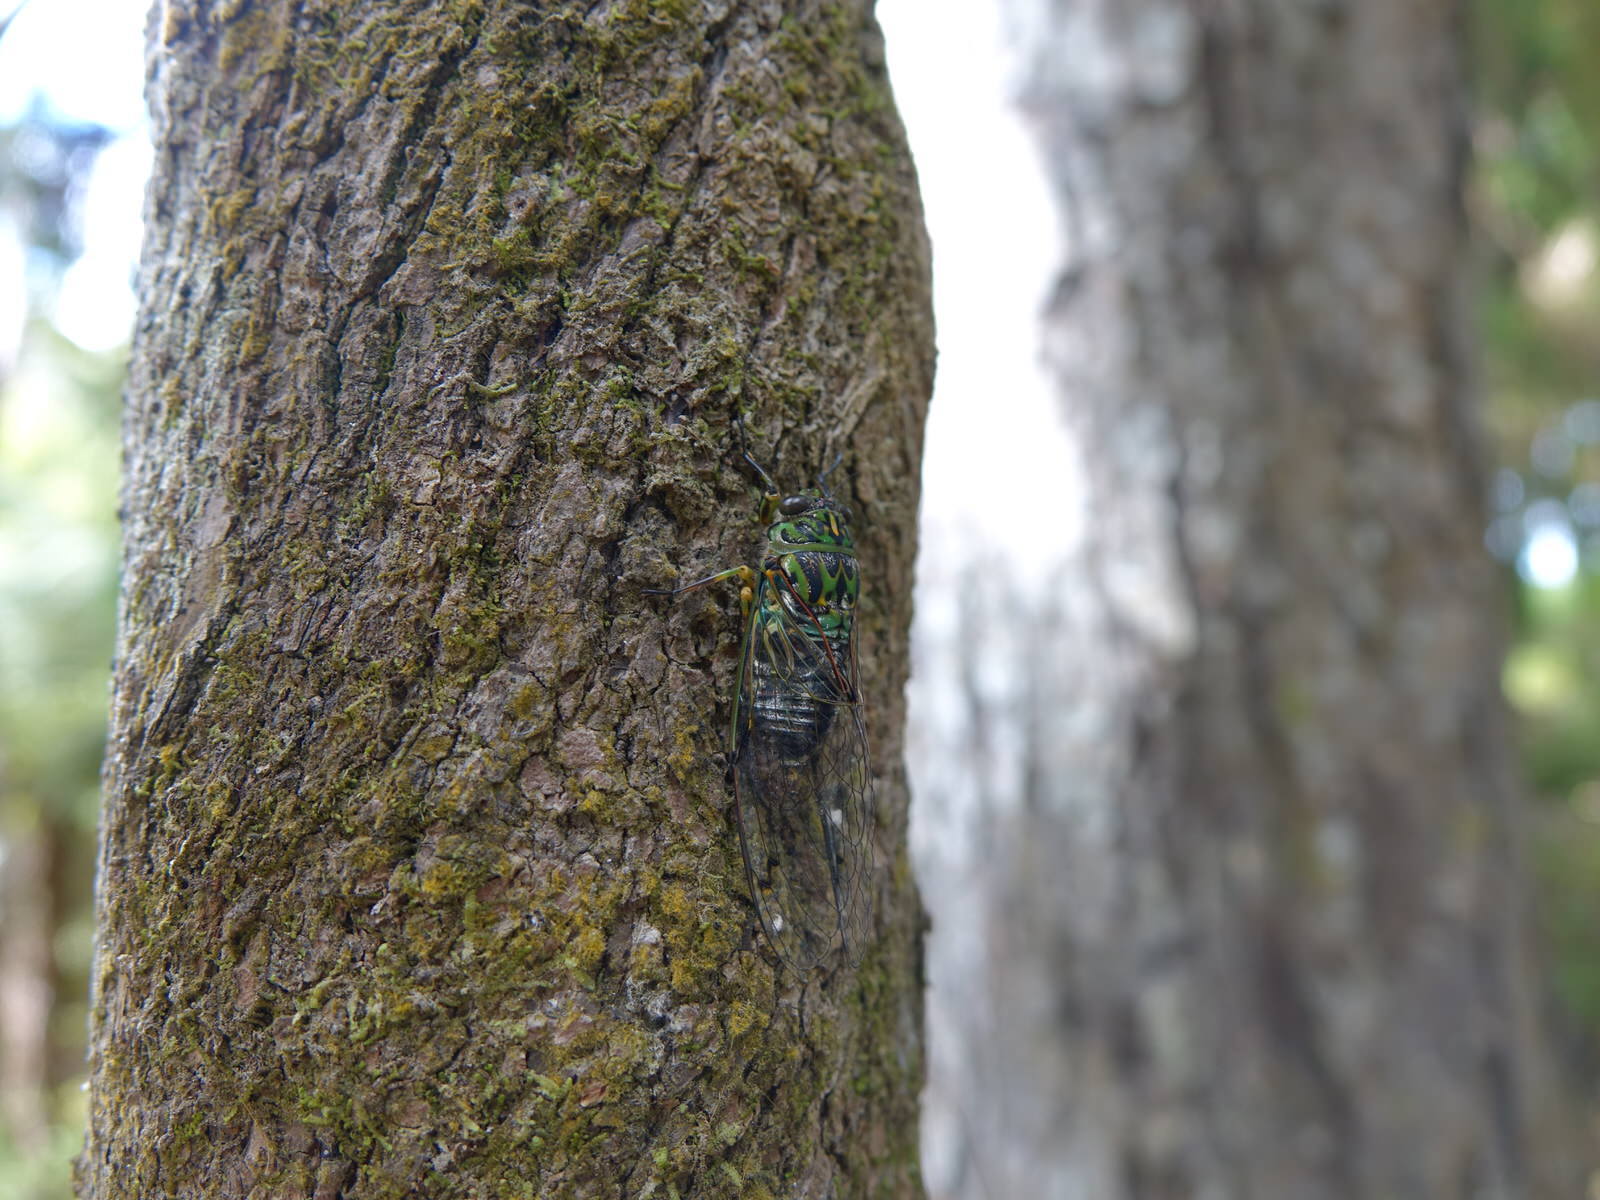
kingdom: Animalia
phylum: Arthropoda
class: Insecta
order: Hemiptera
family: Cicadidae
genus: Amphipsalta
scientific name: Amphipsalta zelandica
